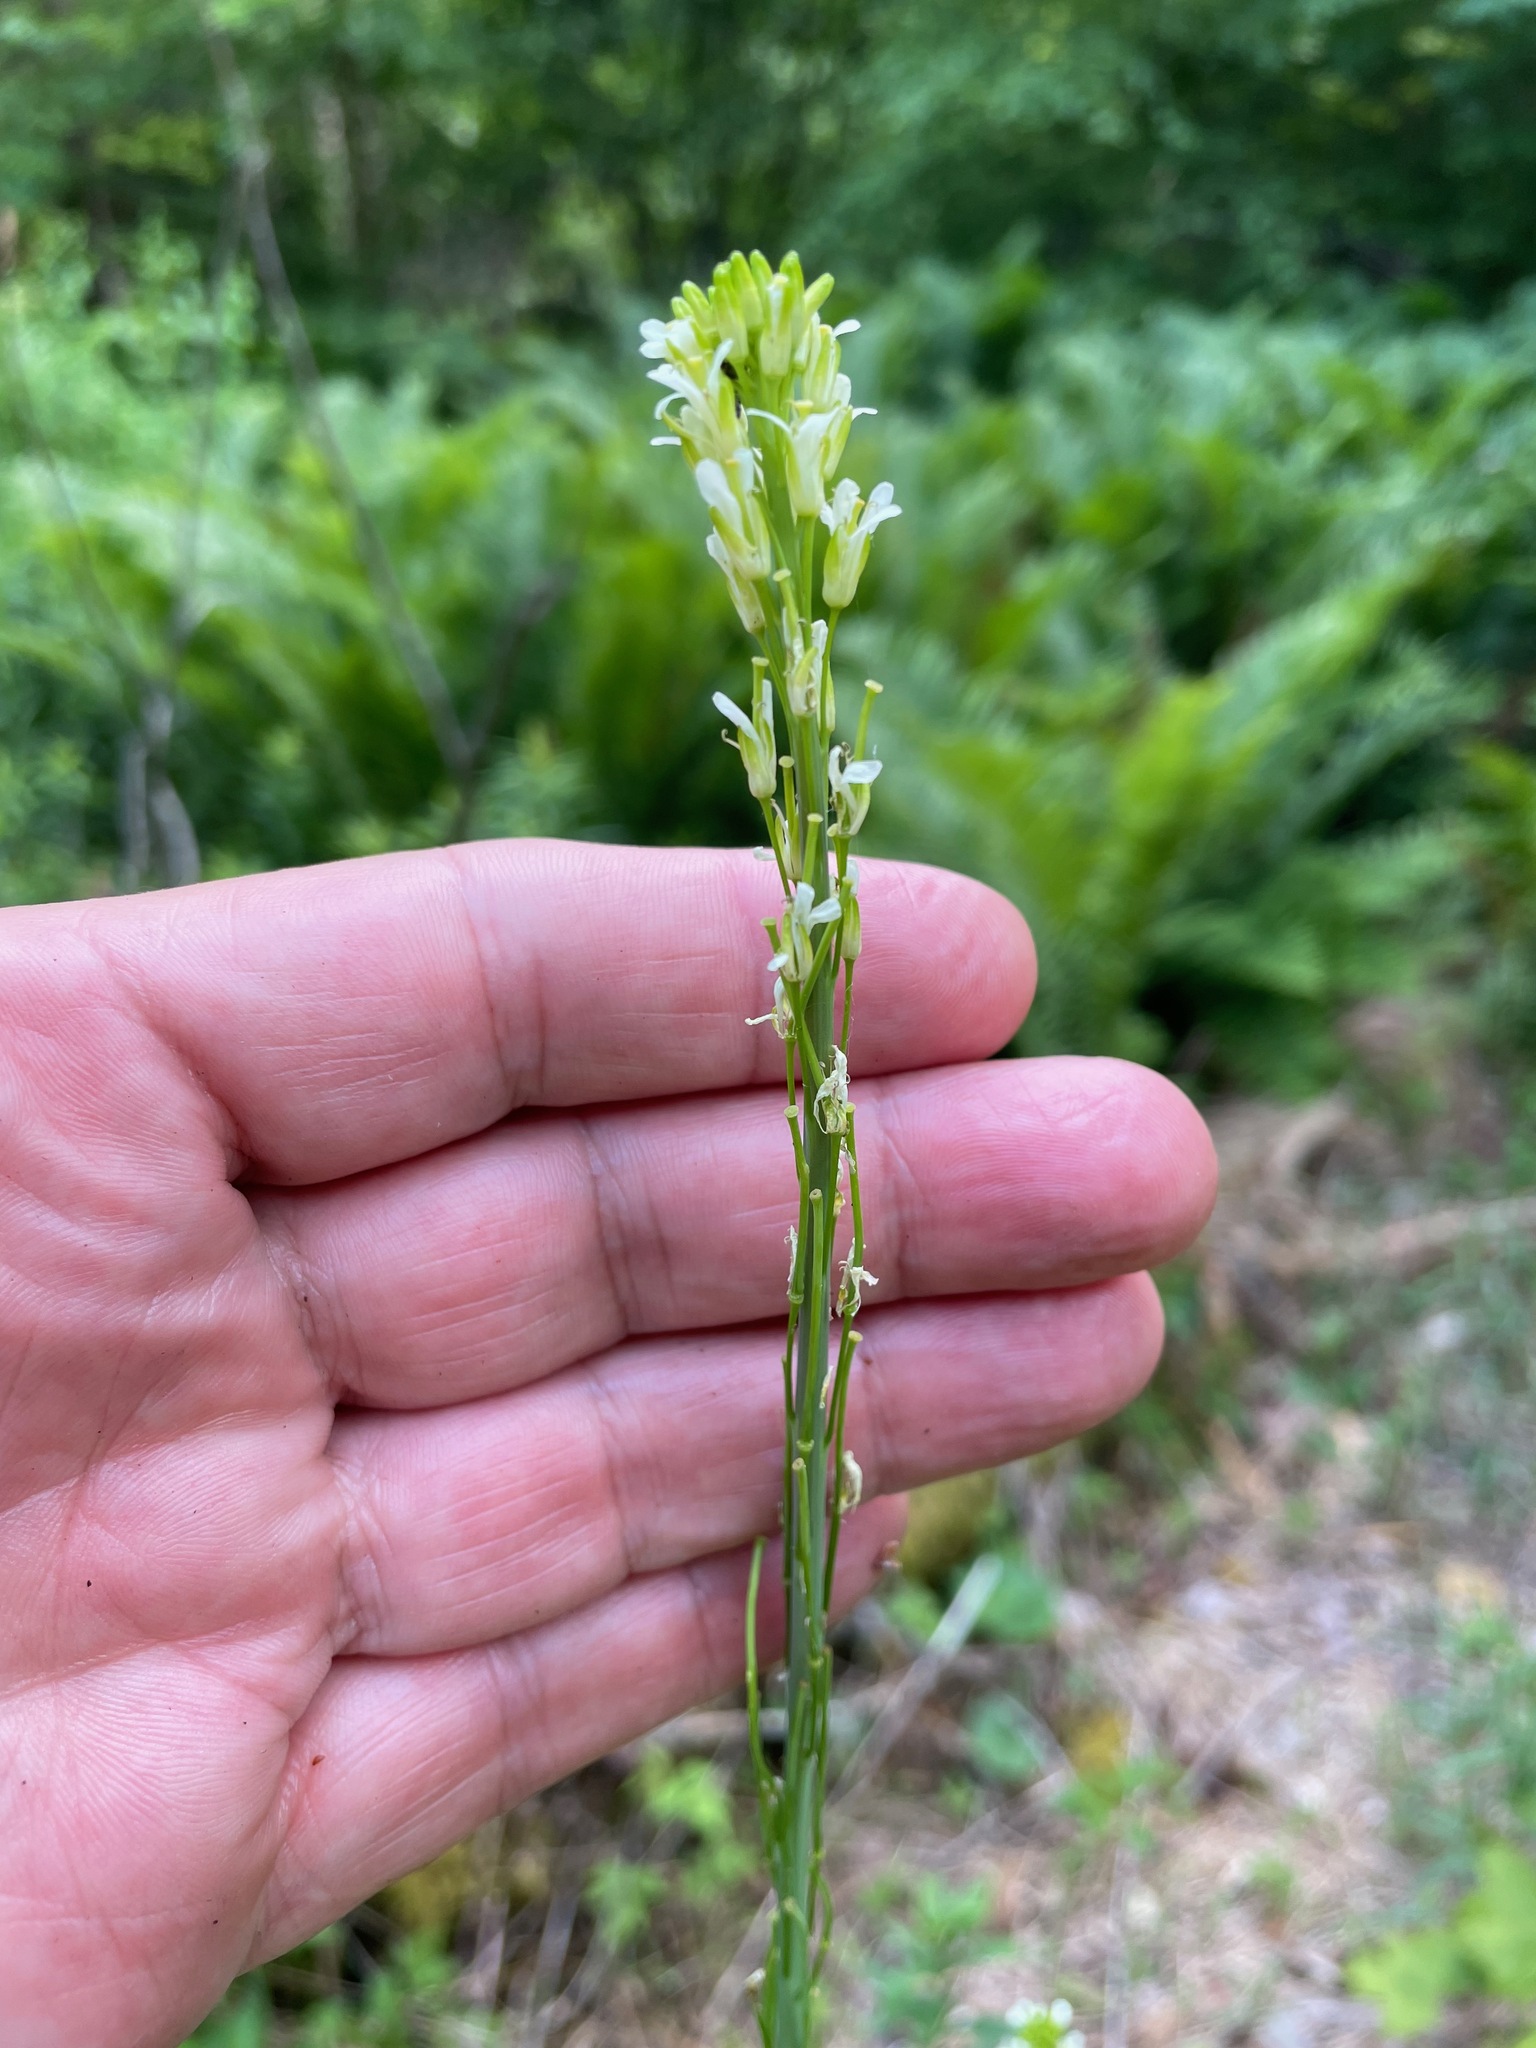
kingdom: Plantae
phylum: Tracheophyta
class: Magnoliopsida
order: Brassicales
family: Brassicaceae
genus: Turritis
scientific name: Turritis glabra
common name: Tower rockcress
